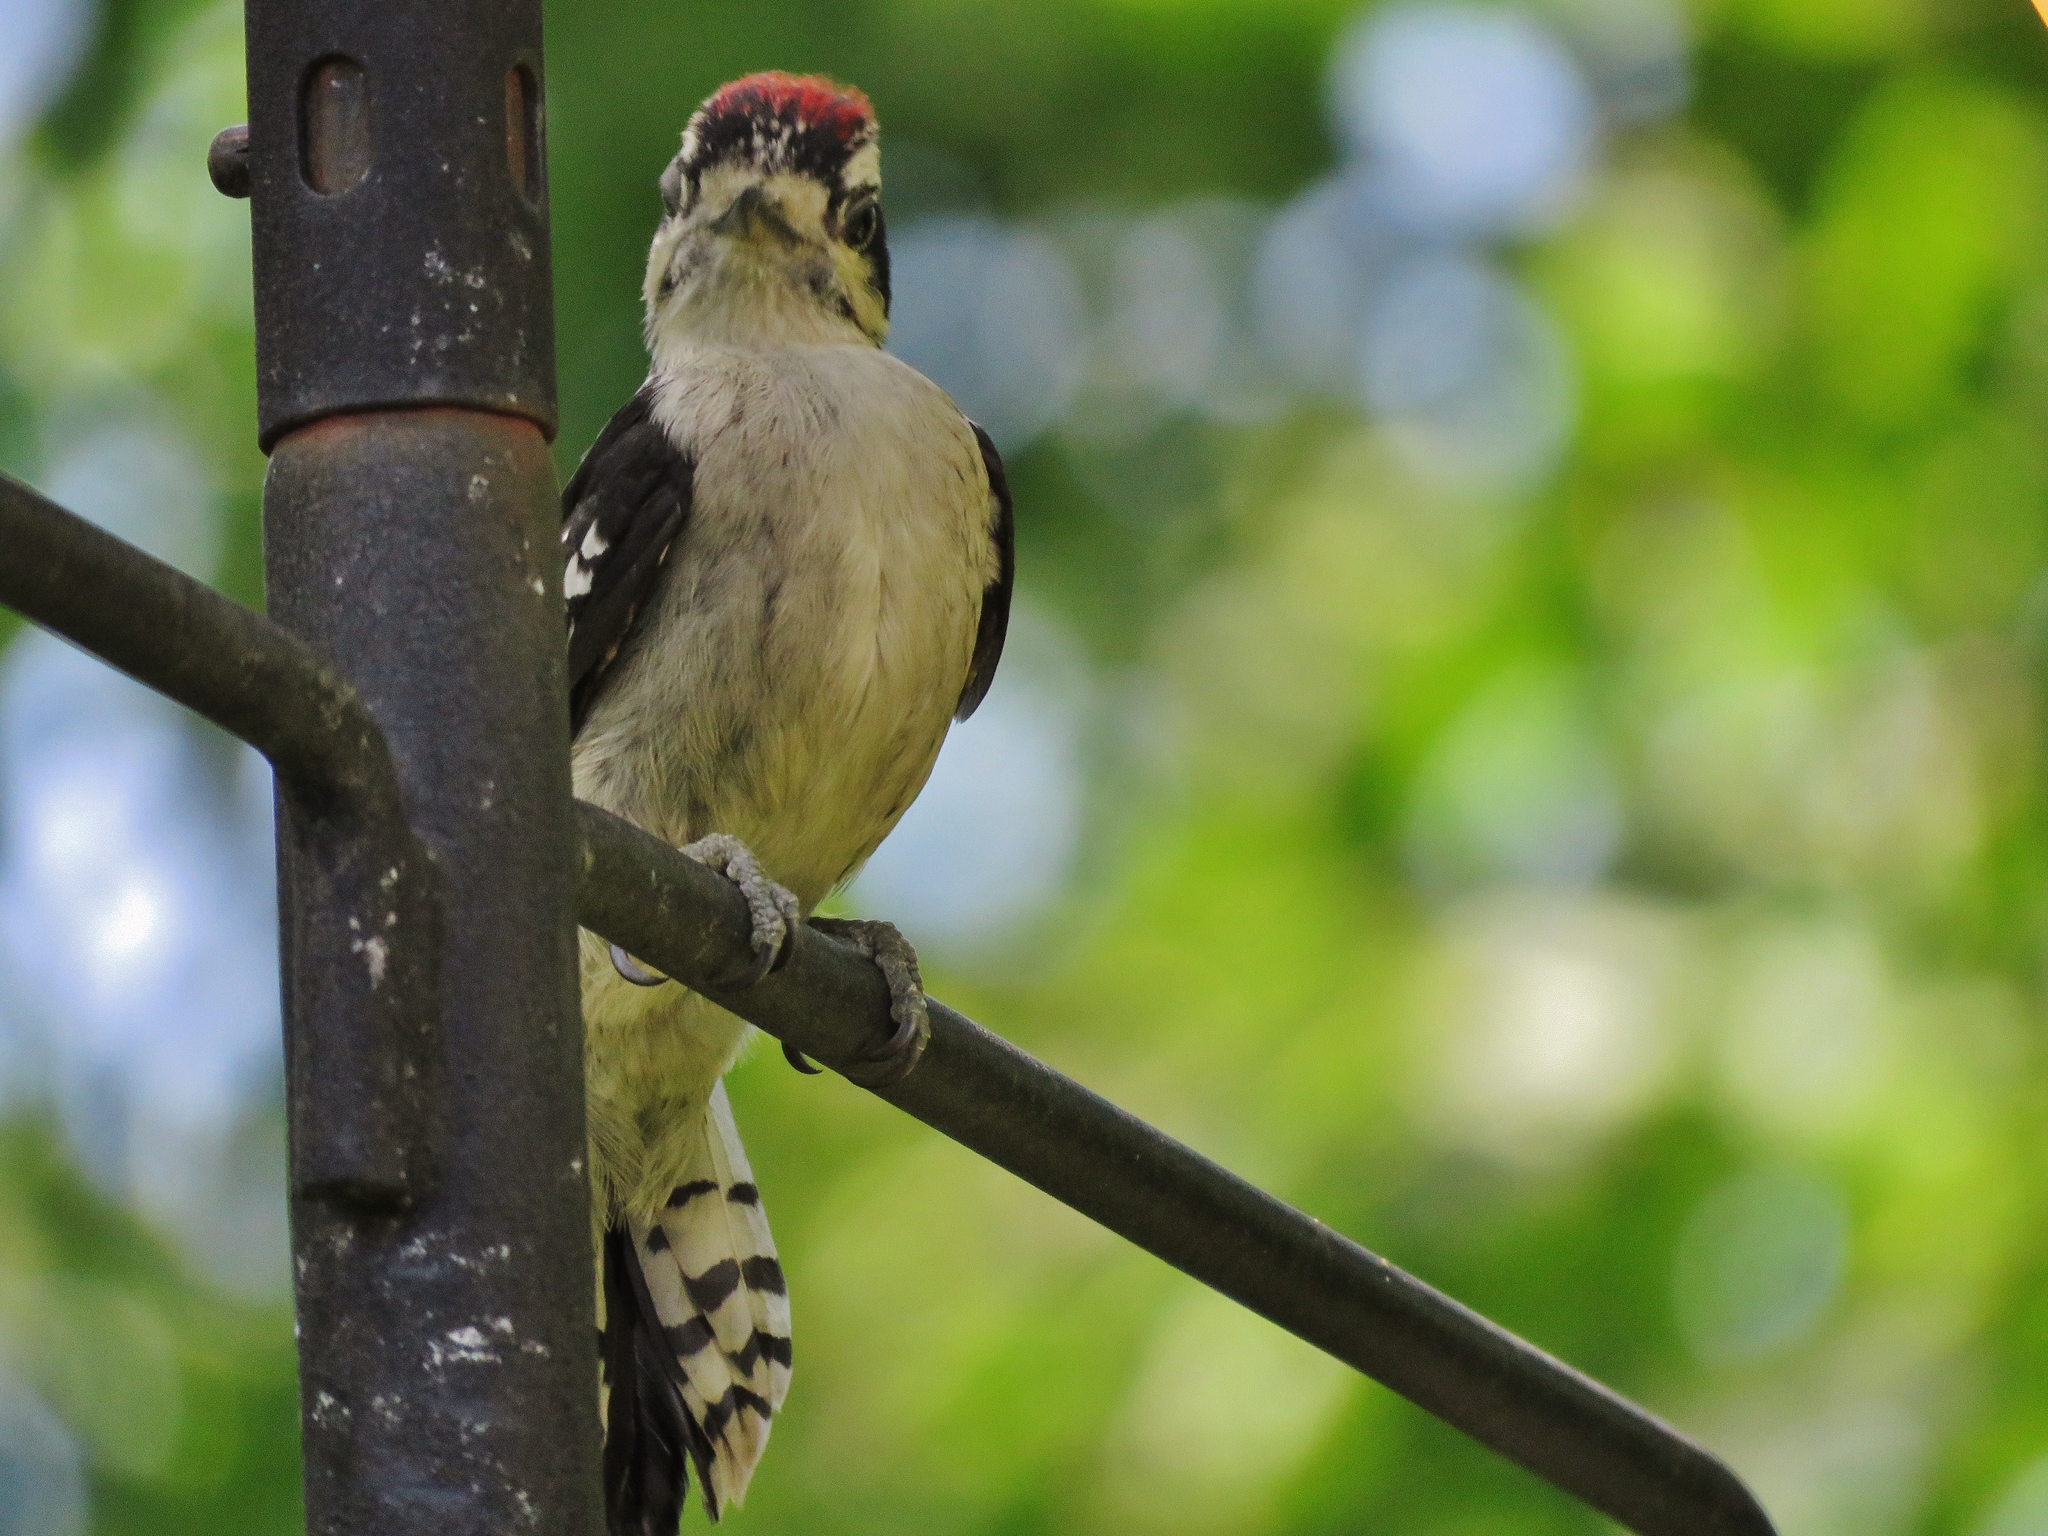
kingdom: Animalia
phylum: Chordata
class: Aves
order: Piciformes
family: Picidae
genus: Dryobates
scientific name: Dryobates pubescens
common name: Downy woodpecker
